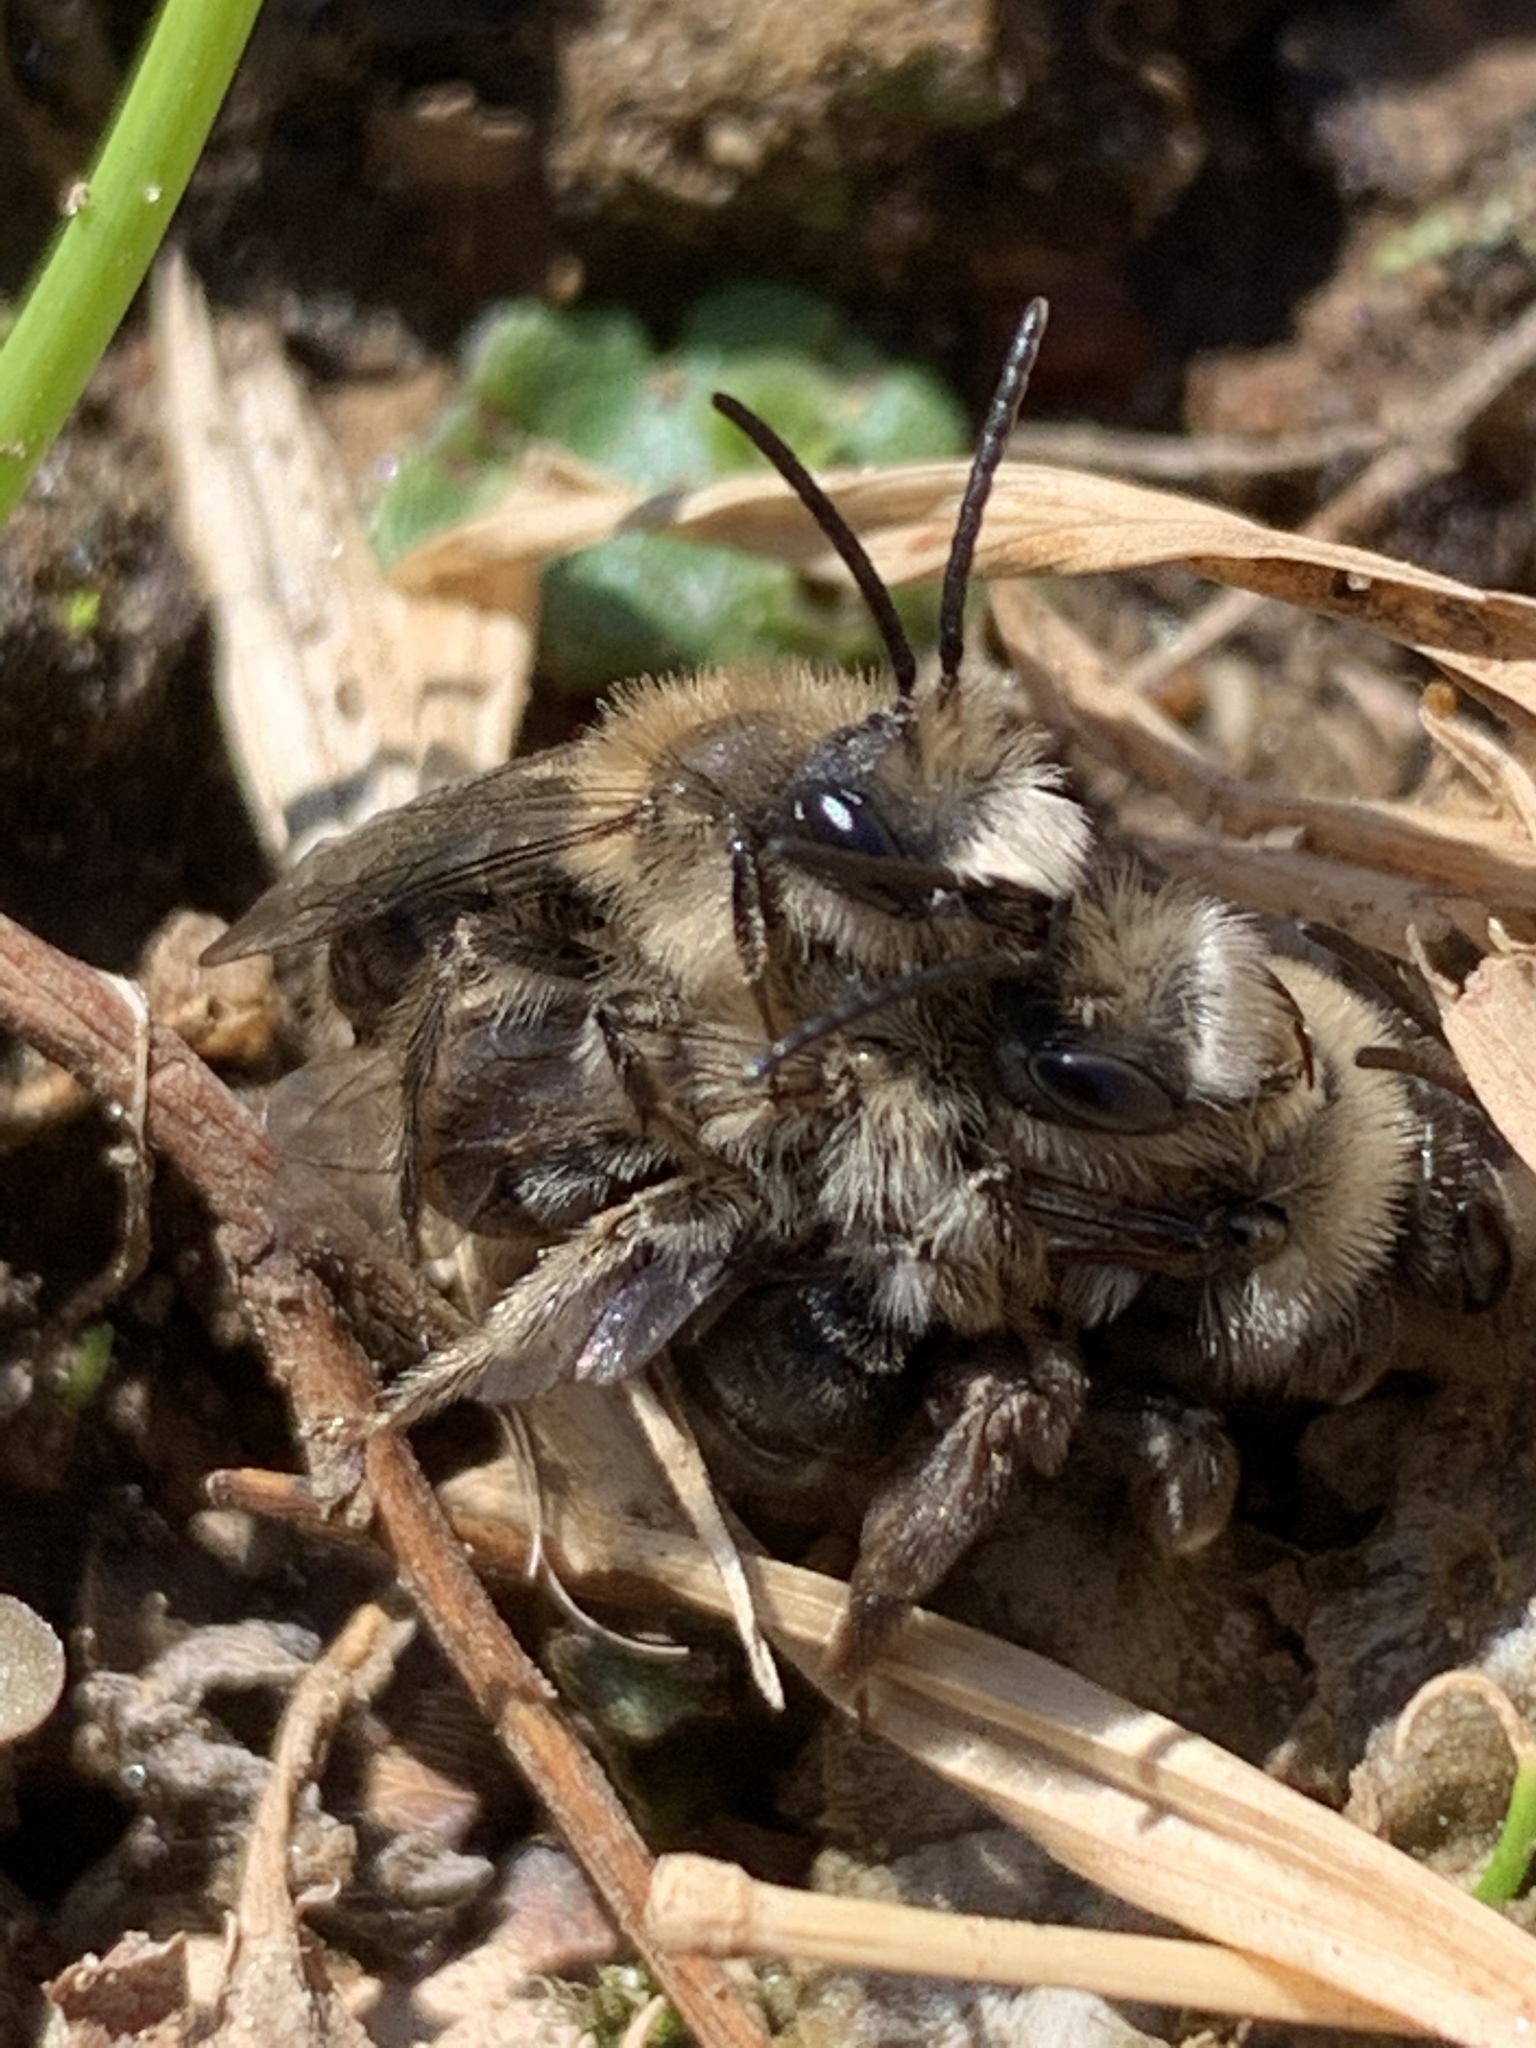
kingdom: Animalia
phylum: Arthropoda
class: Insecta
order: Hymenoptera
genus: Melandrena
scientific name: Melandrena
